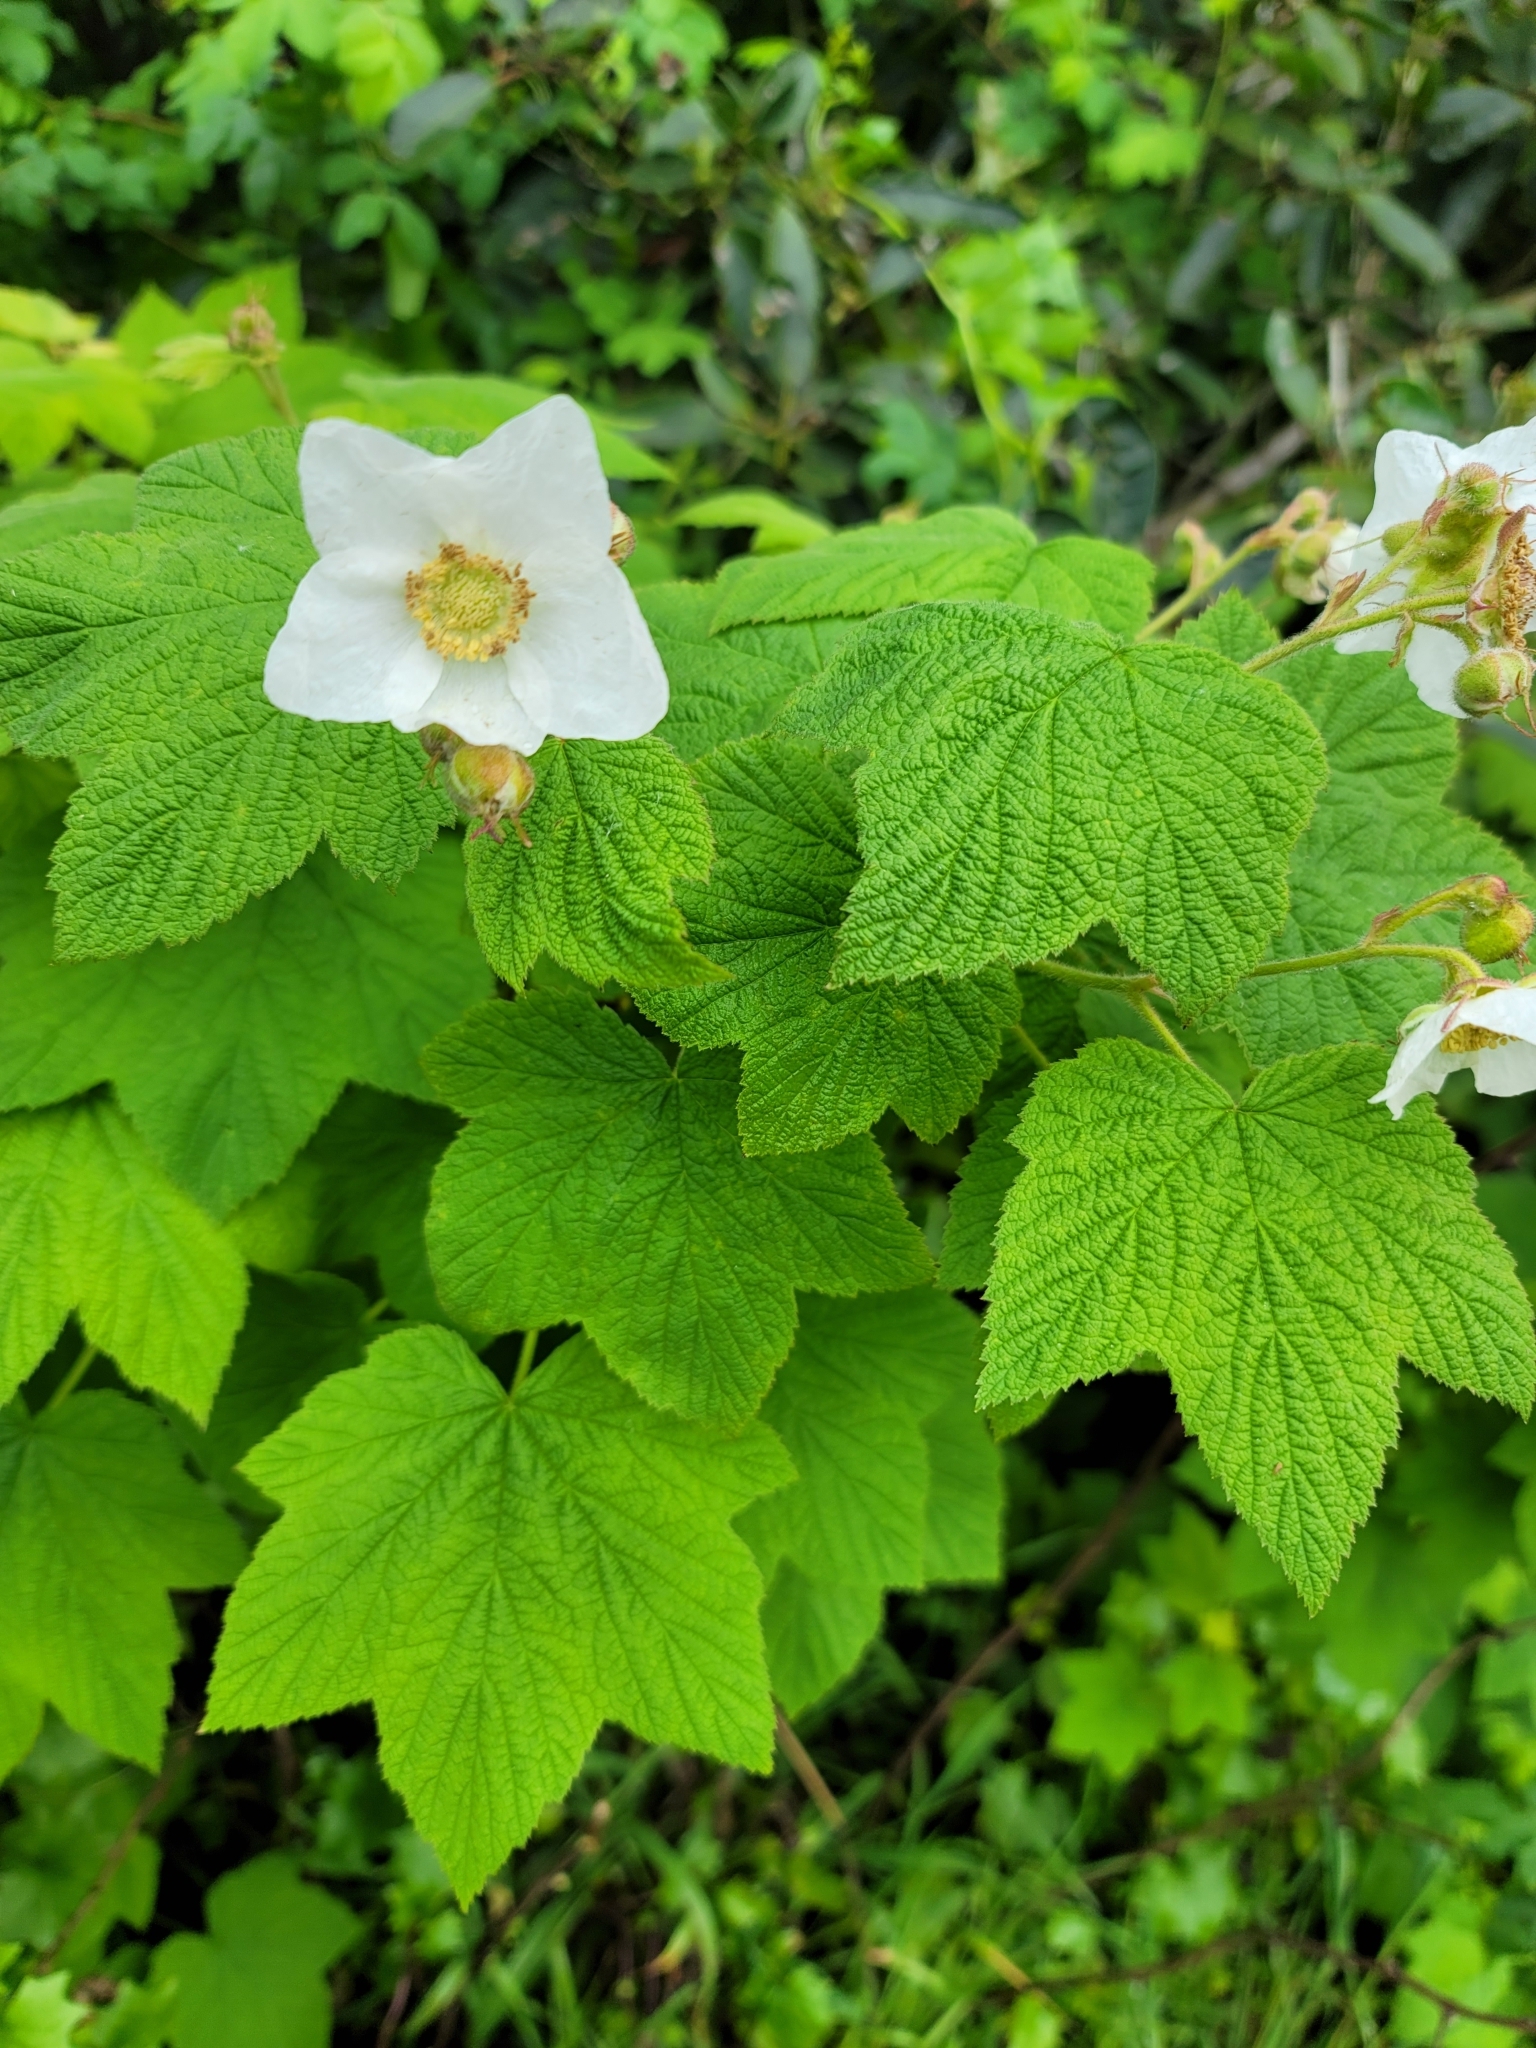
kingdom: Plantae
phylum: Tracheophyta
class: Magnoliopsida
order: Rosales
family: Rosaceae
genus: Rubus
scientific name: Rubus parviflorus
